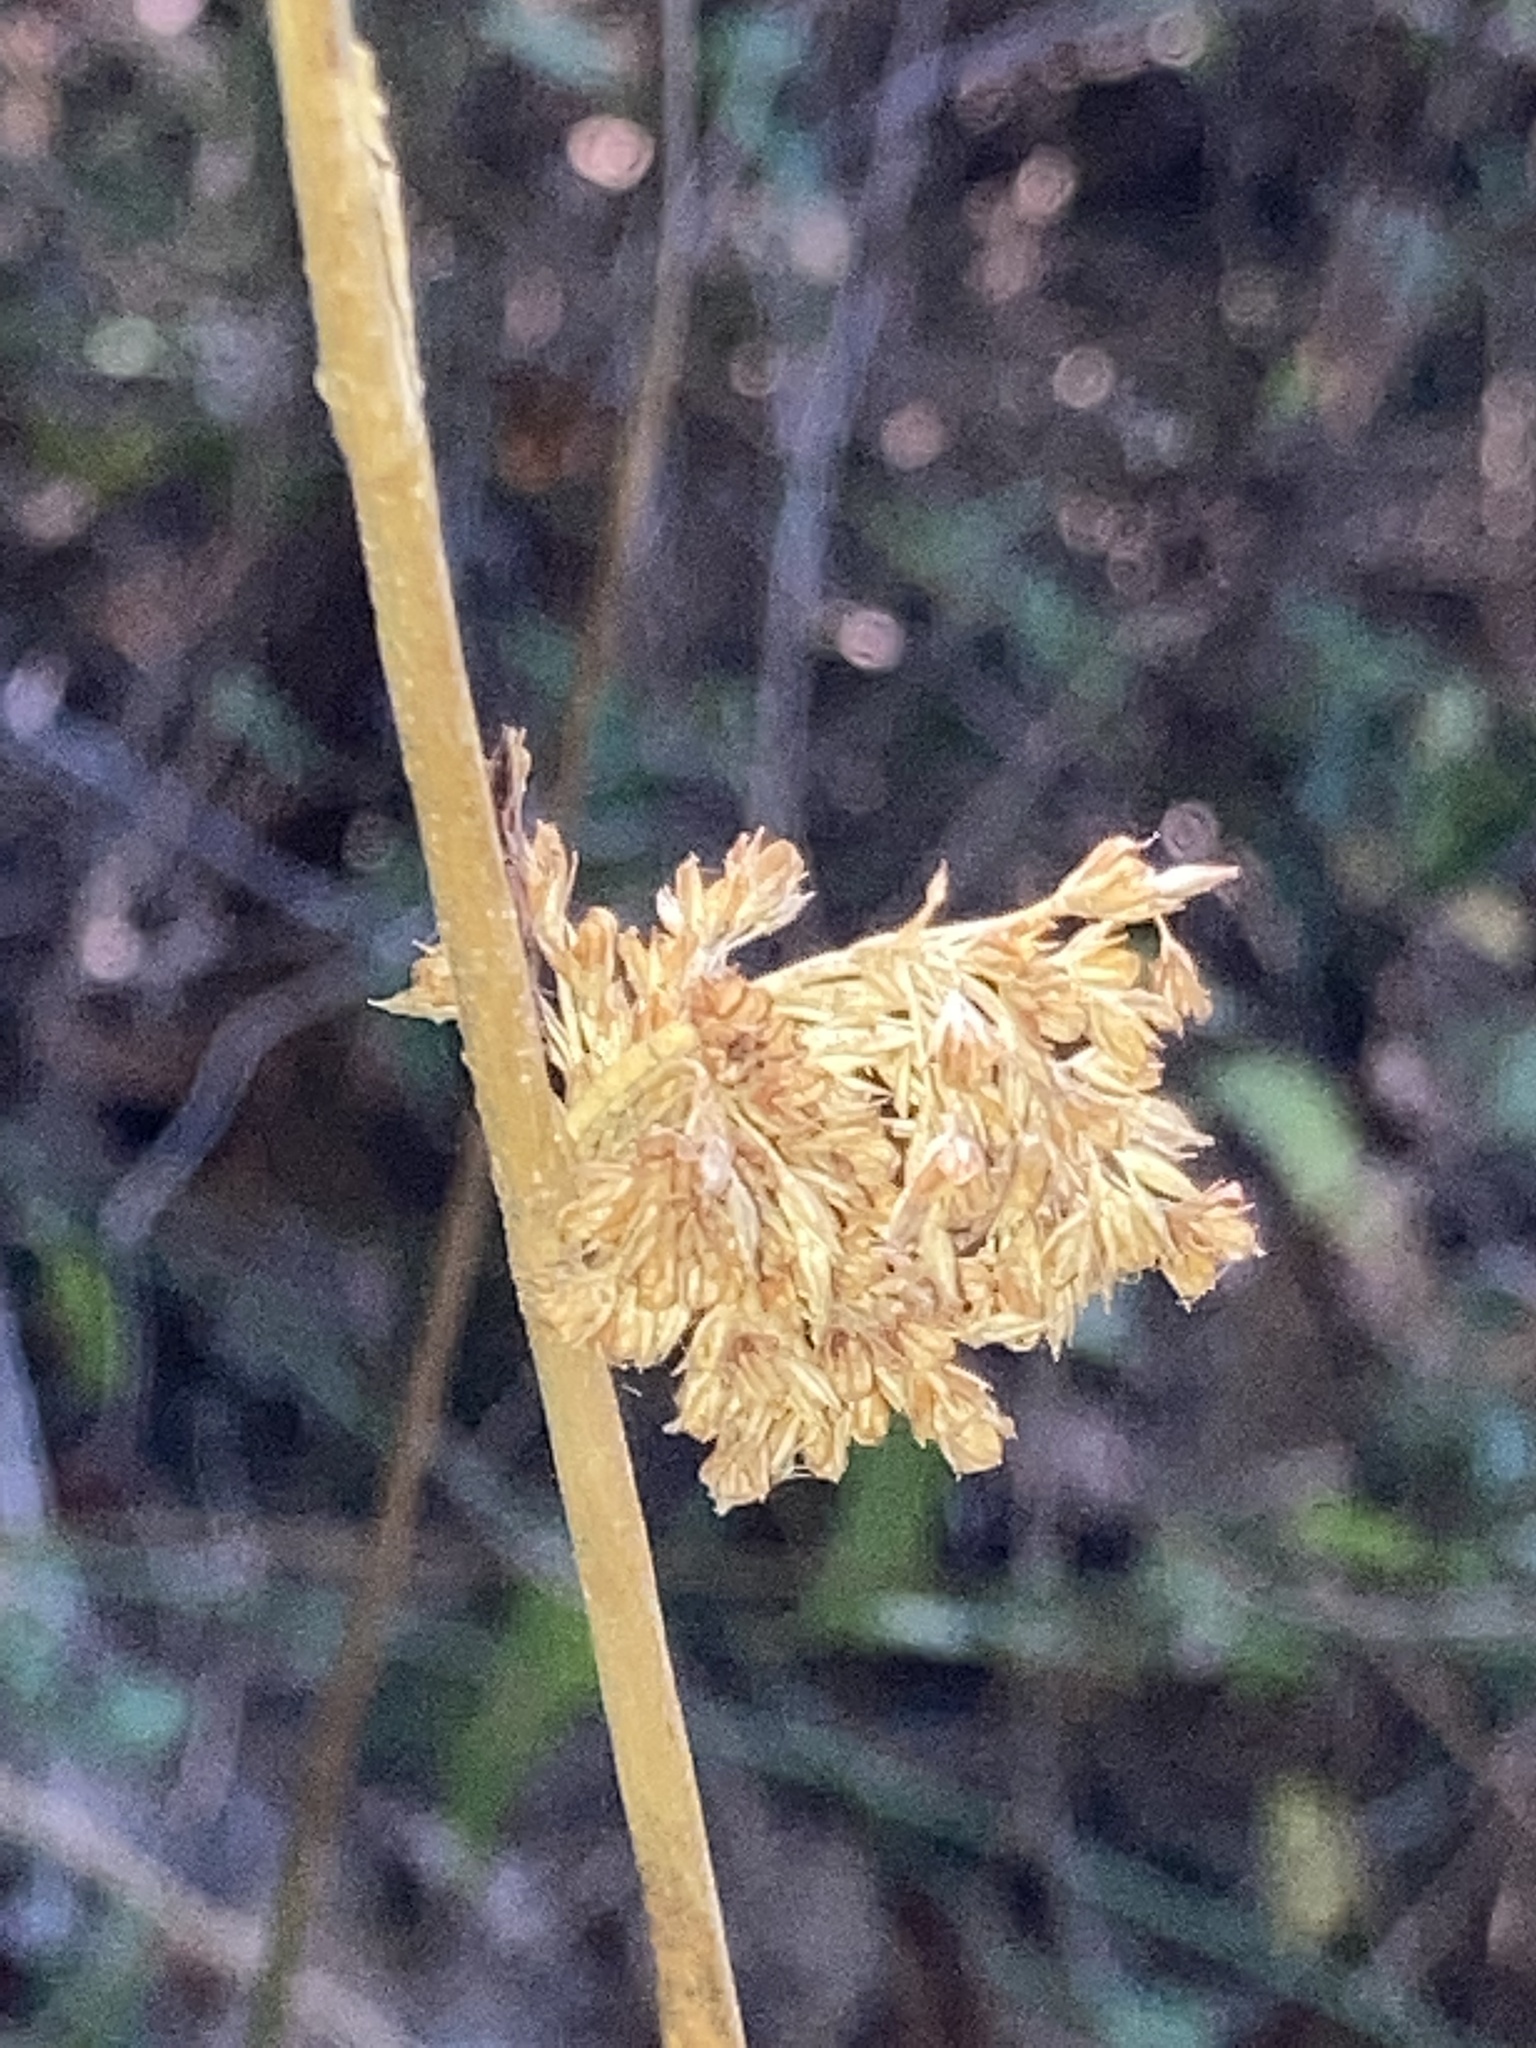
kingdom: Plantae
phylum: Tracheophyta
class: Liliopsida
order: Poales
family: Juncaceae
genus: Juncus
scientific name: Juncus effusus
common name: Soft rush
